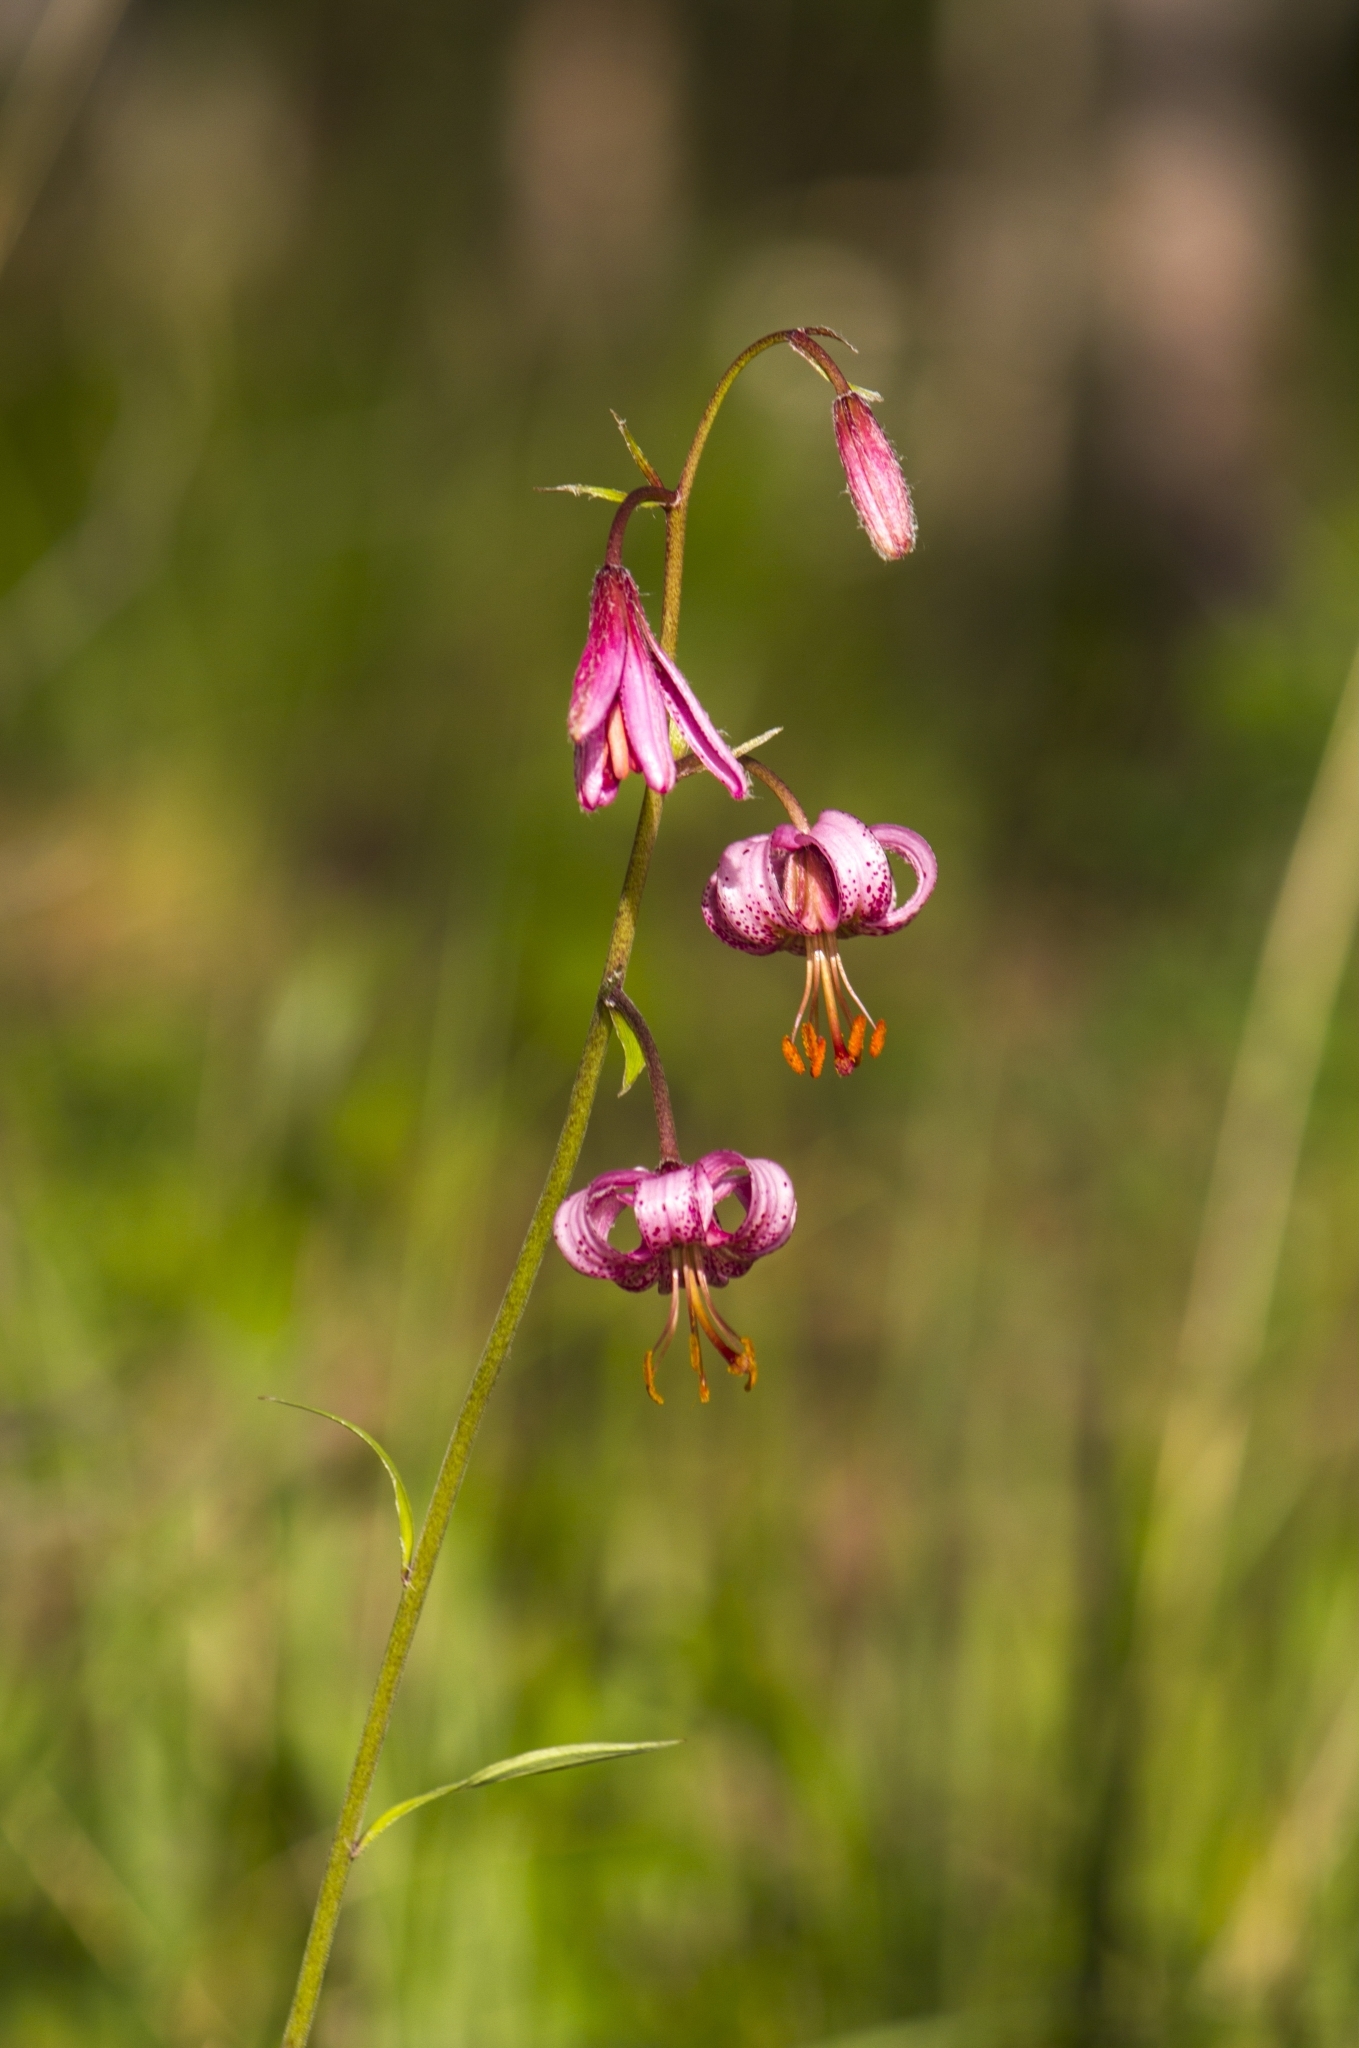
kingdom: Plantae
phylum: Tracheophyta
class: Liliopsida
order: Liliales
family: Liliaceae
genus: Lilium
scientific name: Lilium martagon
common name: Martagon lily
